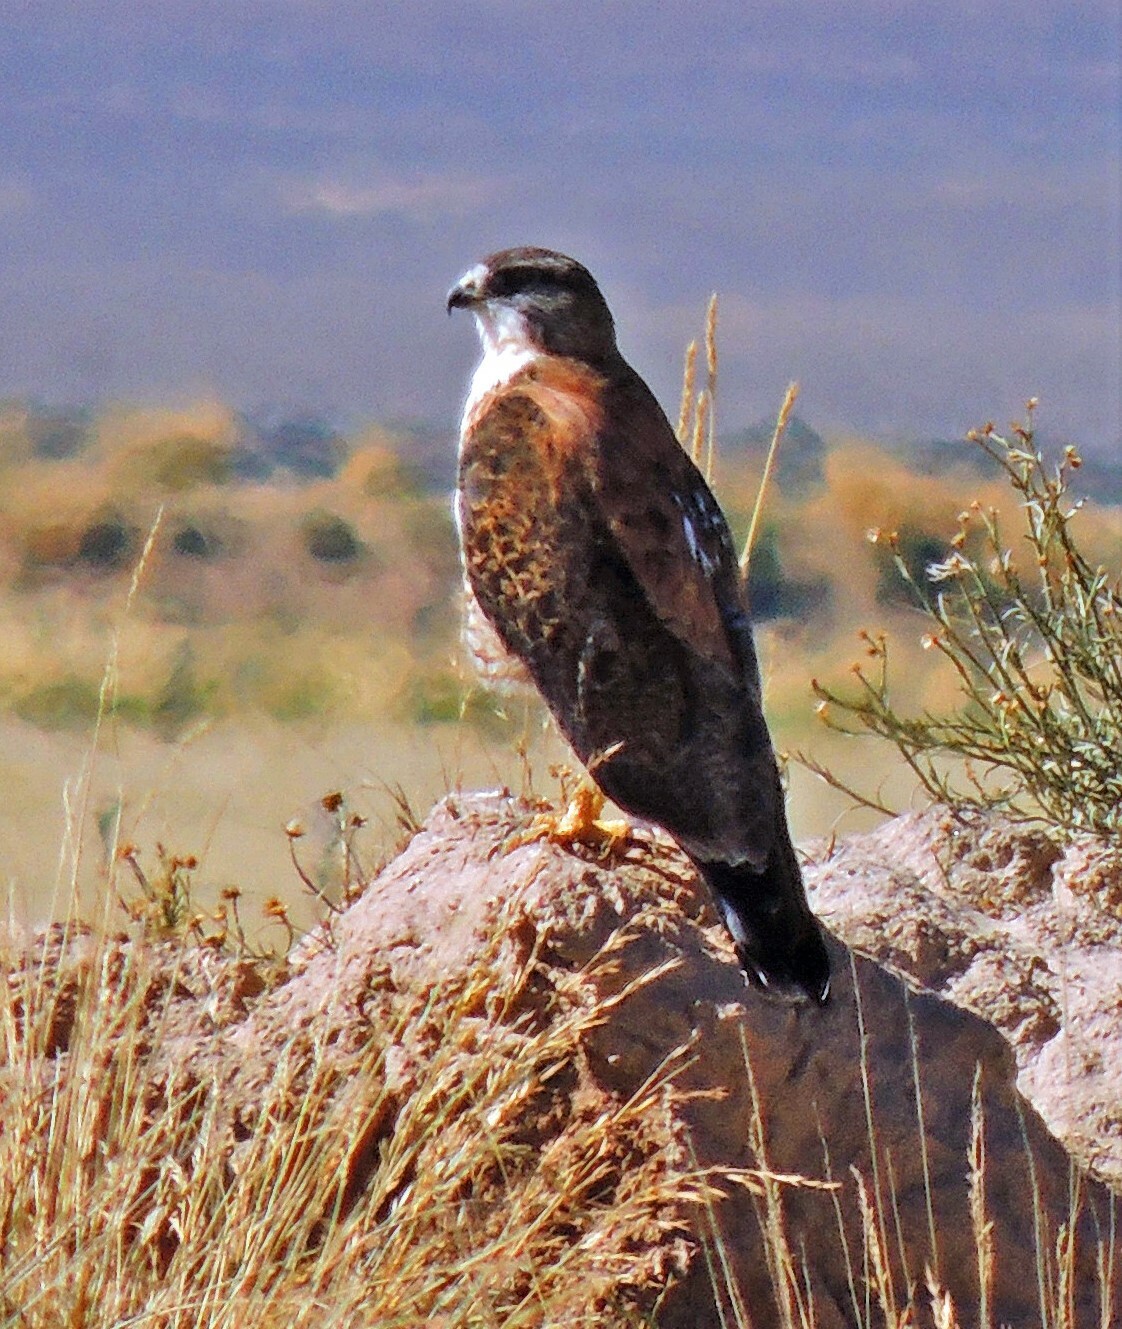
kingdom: Animalia
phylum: Chordata
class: Aves
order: Accipitriformes
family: Accipitridae
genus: Buteo
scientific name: Buteo polyosoma
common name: Variable hawk
